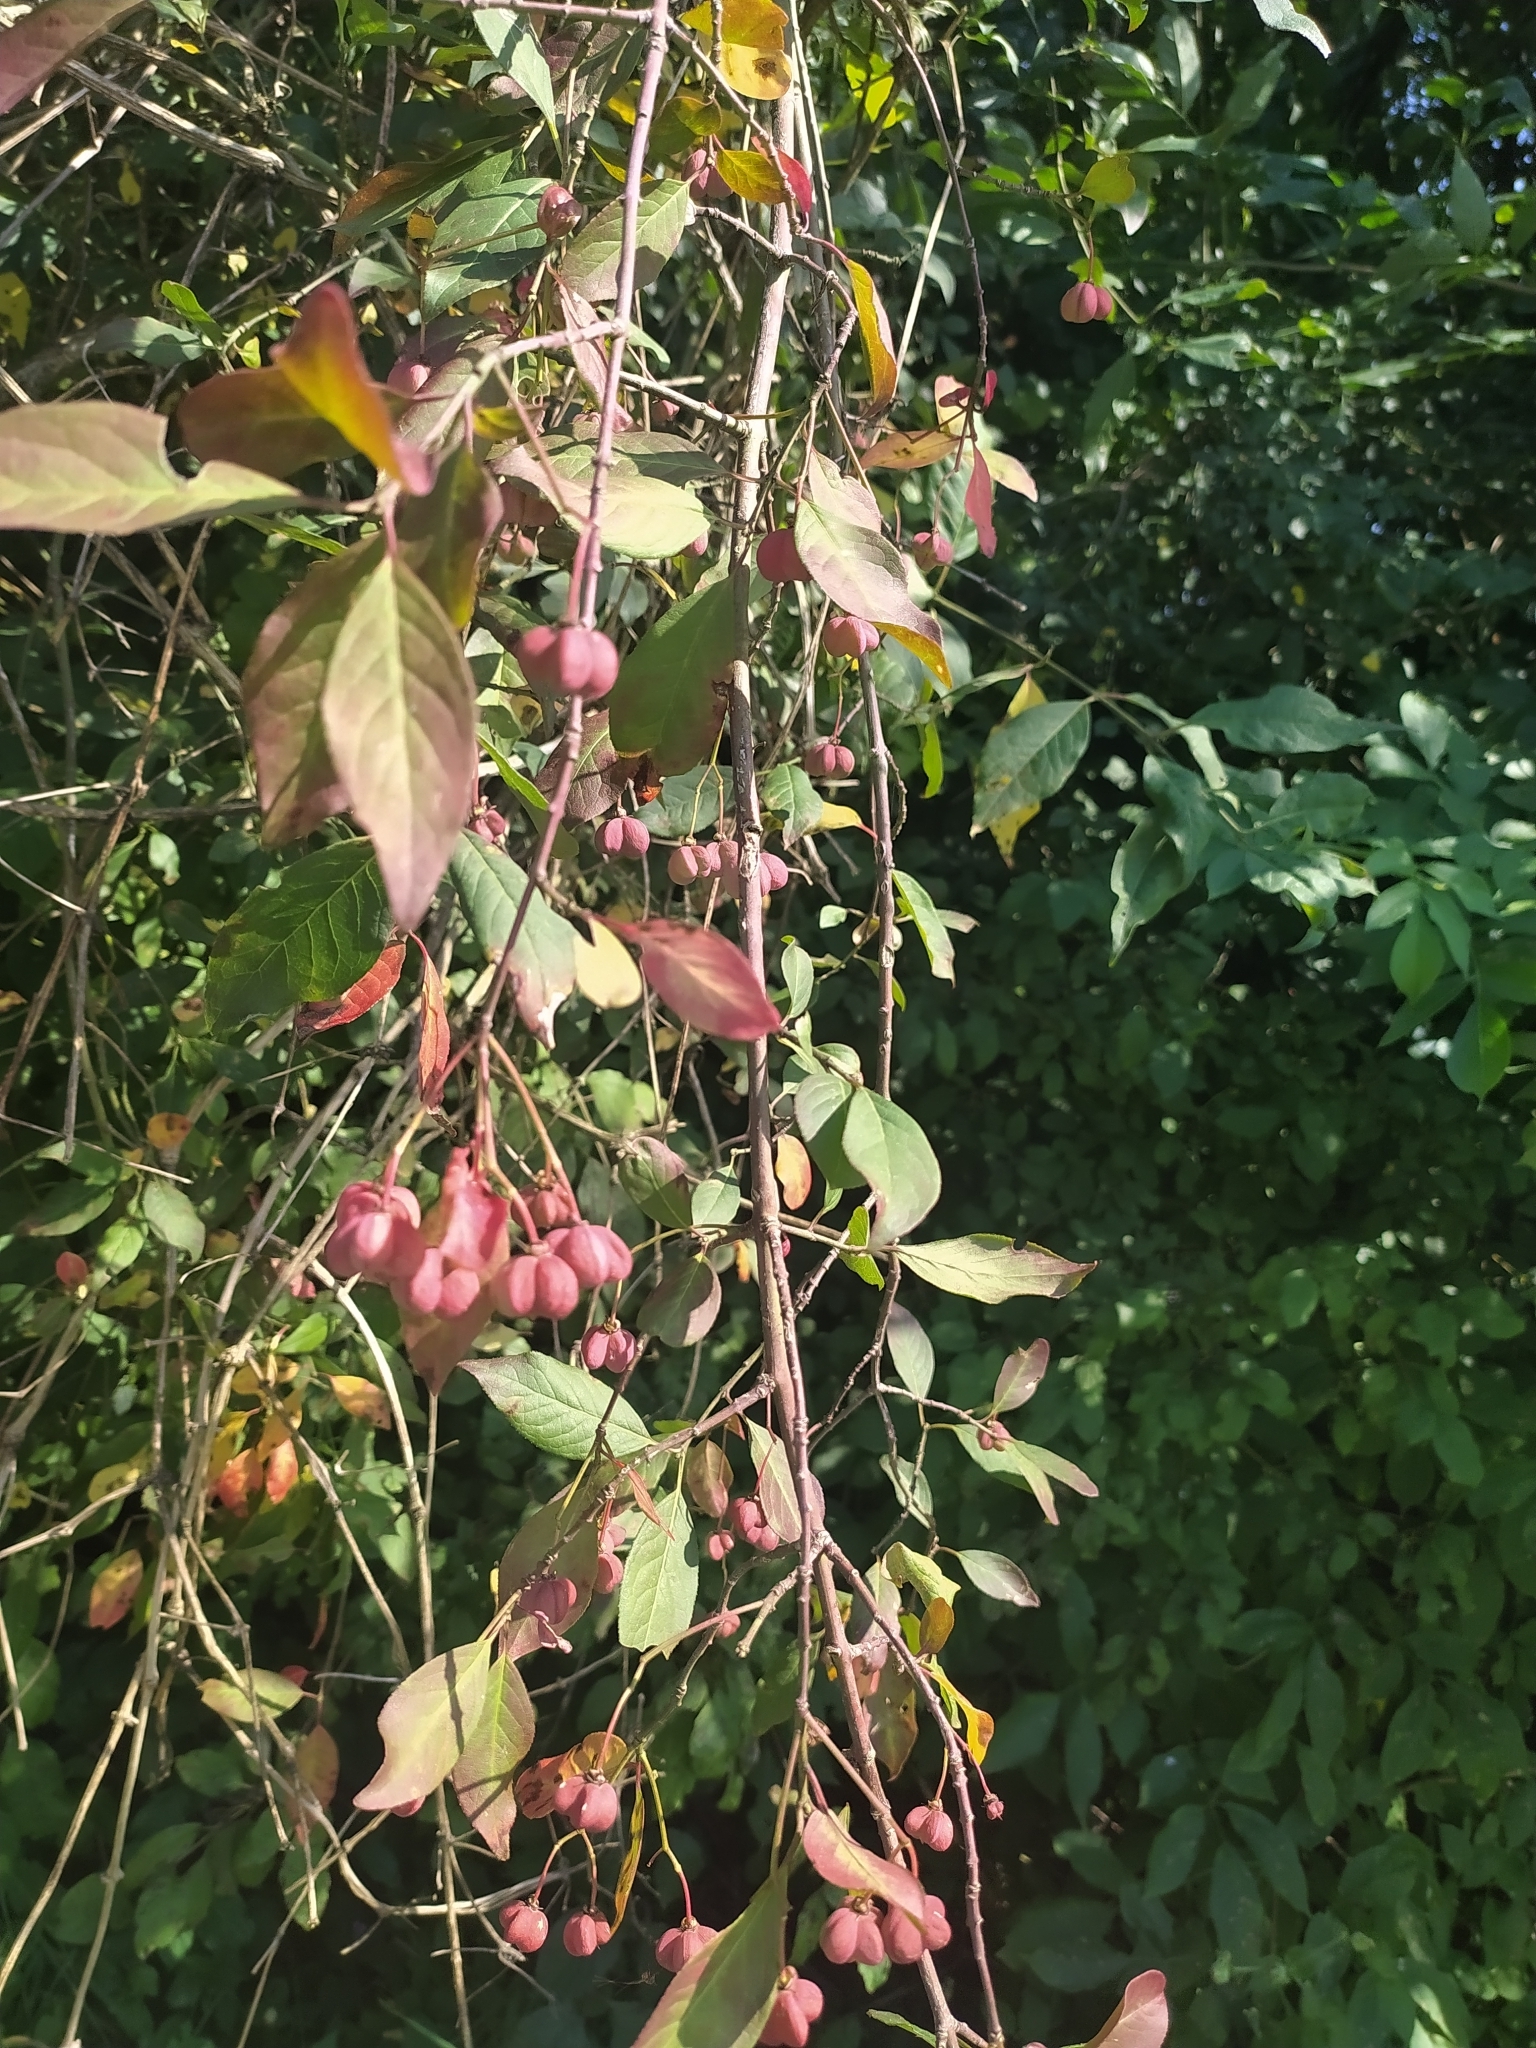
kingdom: Plantae
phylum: Tracheophyta
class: Magnoliopsida
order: Celastrales
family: Celastraceae
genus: Euonymus
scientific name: Euonymus europaeus
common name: Spindle
